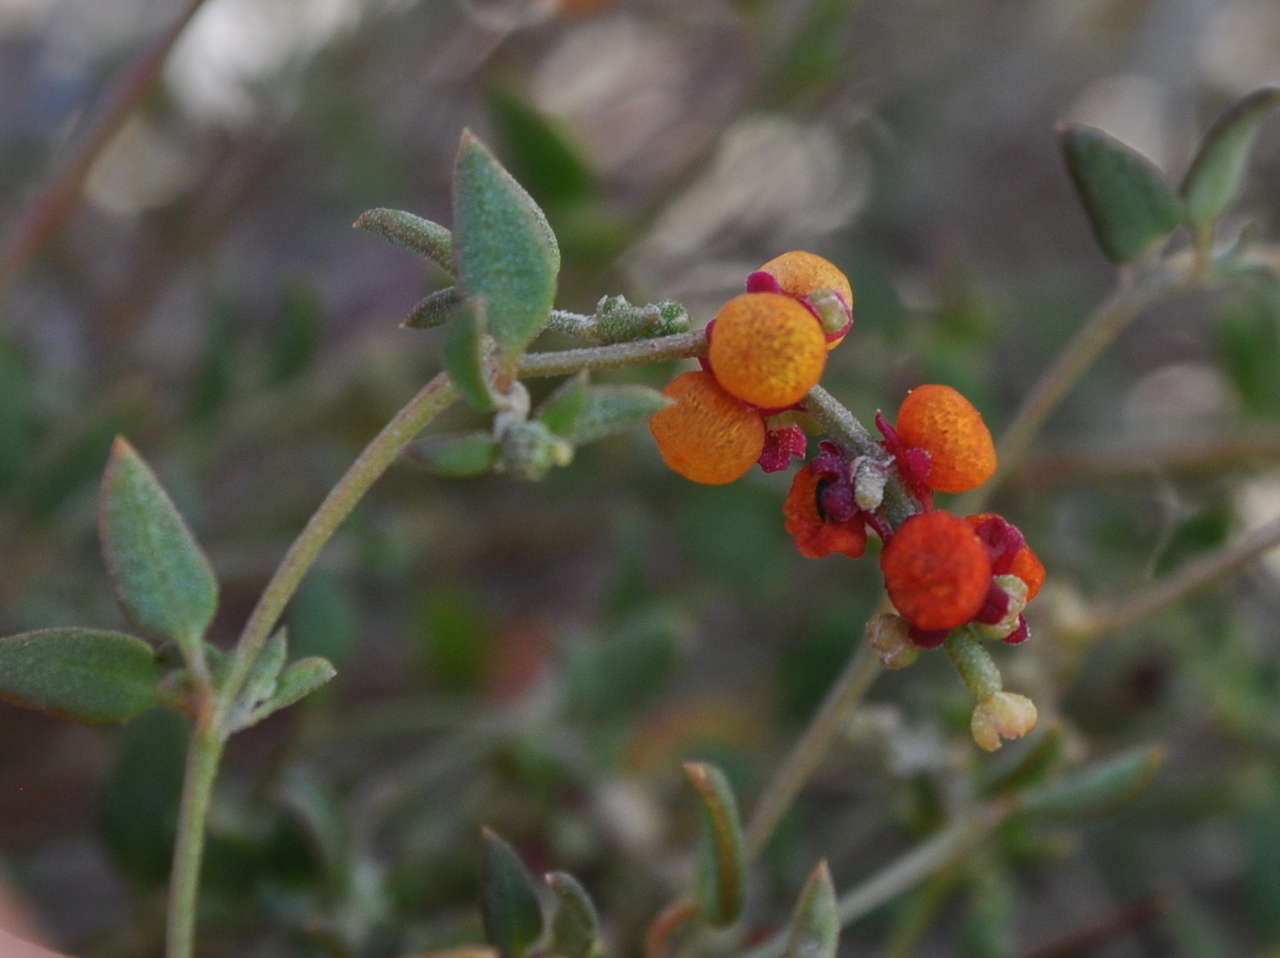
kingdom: Plantae
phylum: Tracheophyta
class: Magnoliopsida
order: Caryophyllales
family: Amaranthaceae
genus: Chenopodium
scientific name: Chenopodium nutans
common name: Climbing-saltbush
